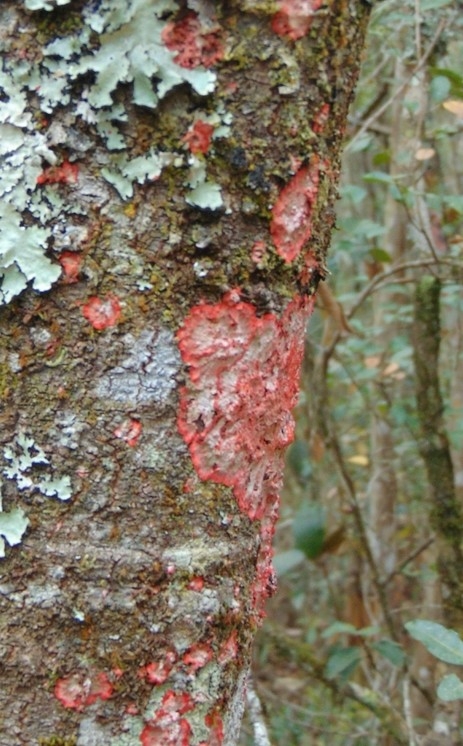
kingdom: Fungi
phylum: Ascomycota
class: Arthoniomycetes
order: Arthoniales
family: Arthoniaceae
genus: Herpothallon
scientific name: Herpothallon rubrocinctum
